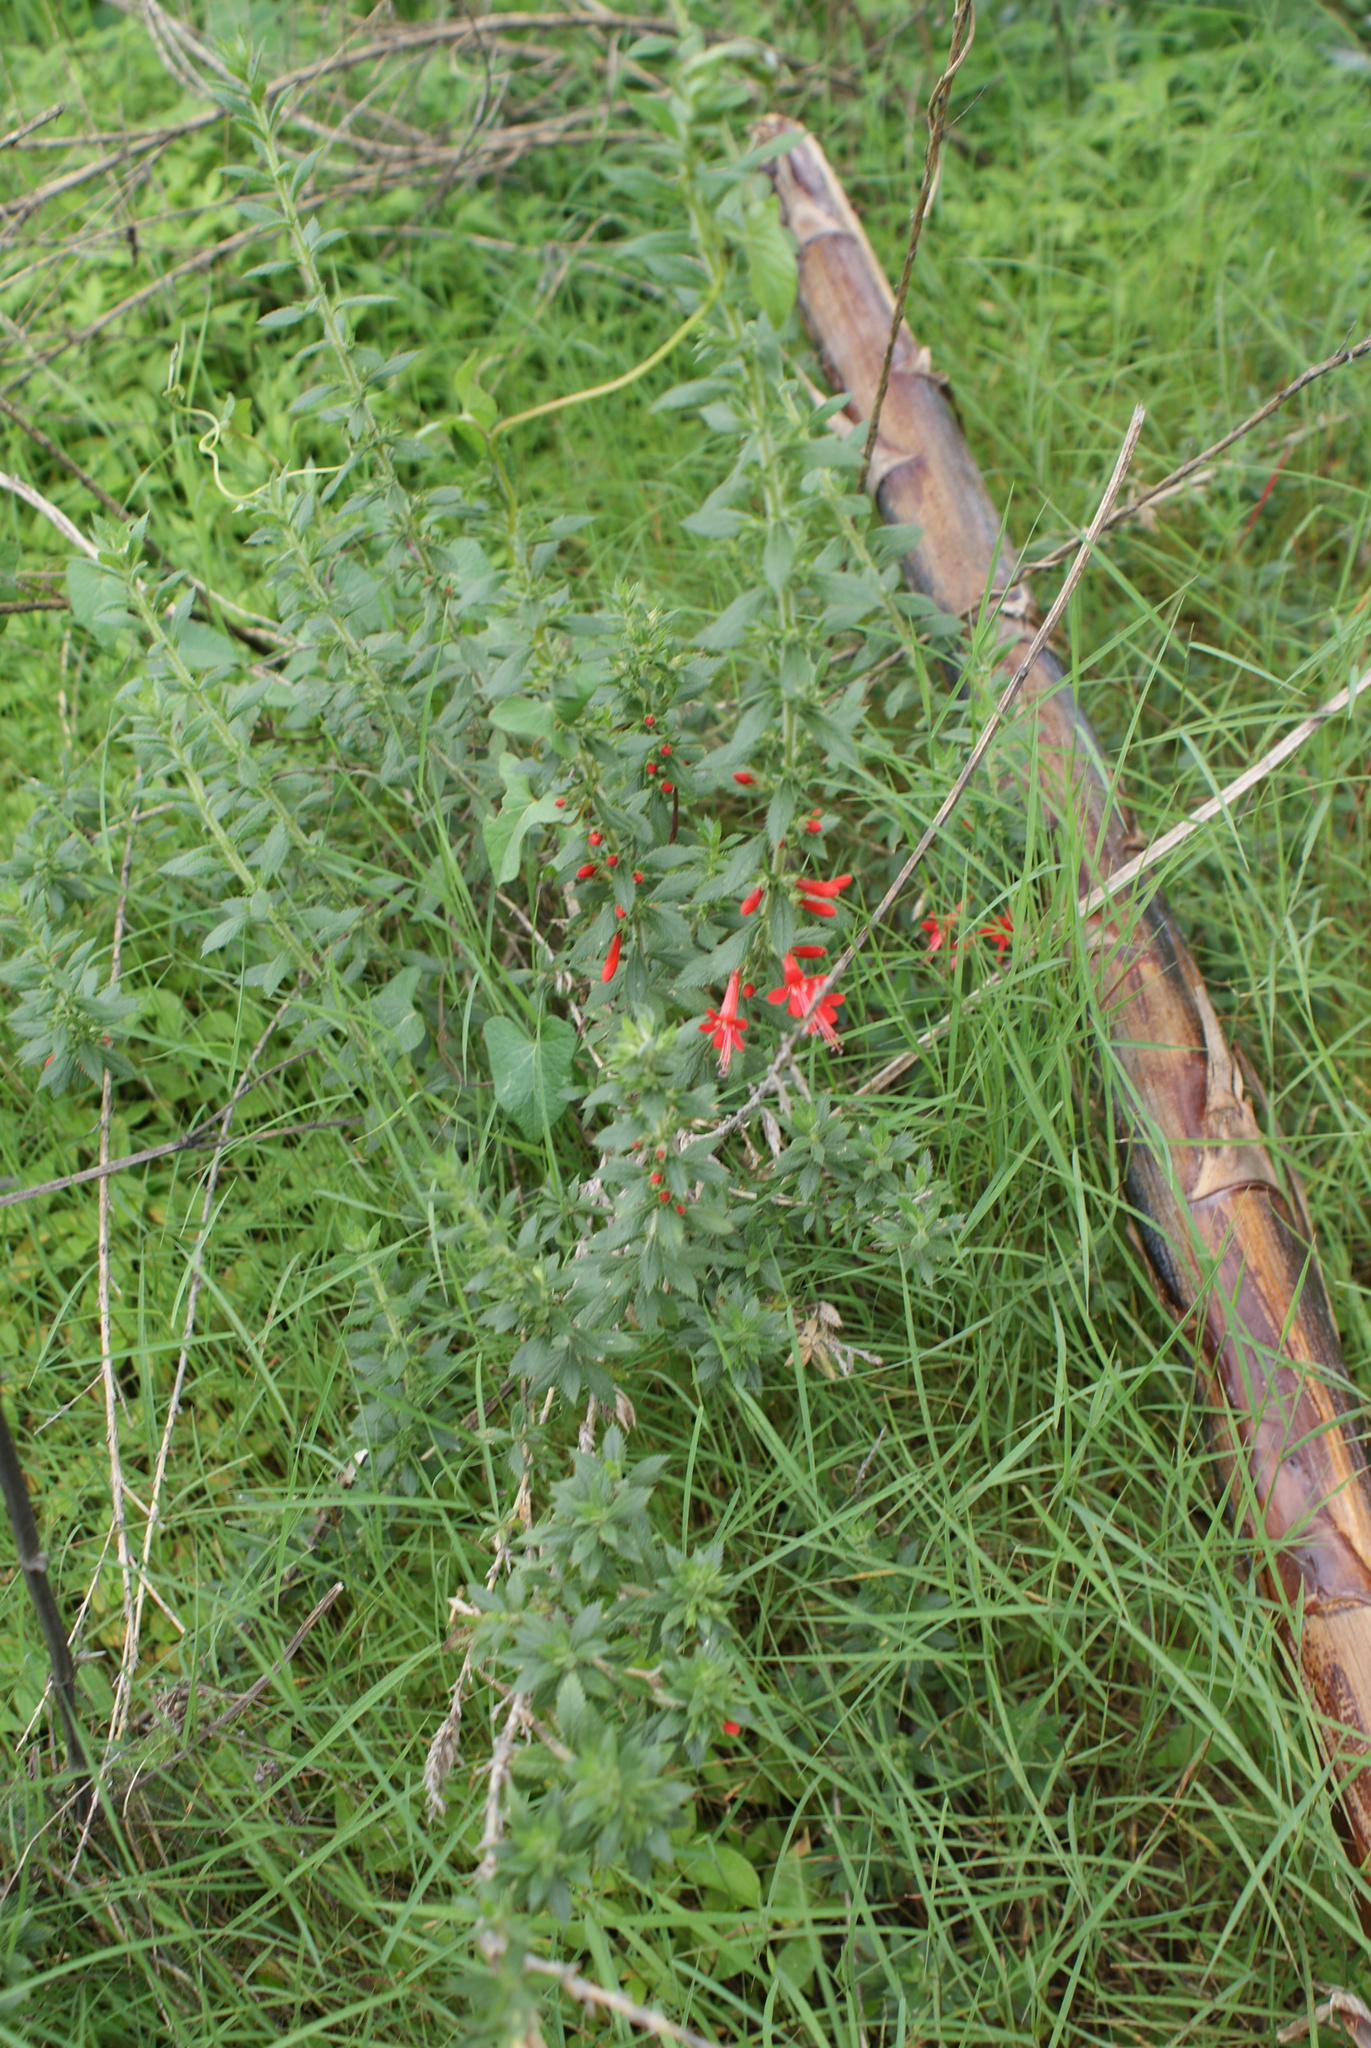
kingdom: Plantae
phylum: Tracheophyta
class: Magnoliopsida
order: Ericales
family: Polemoniaceae
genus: Loeselia
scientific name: Loeselia mexicana
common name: Mexican false calico
